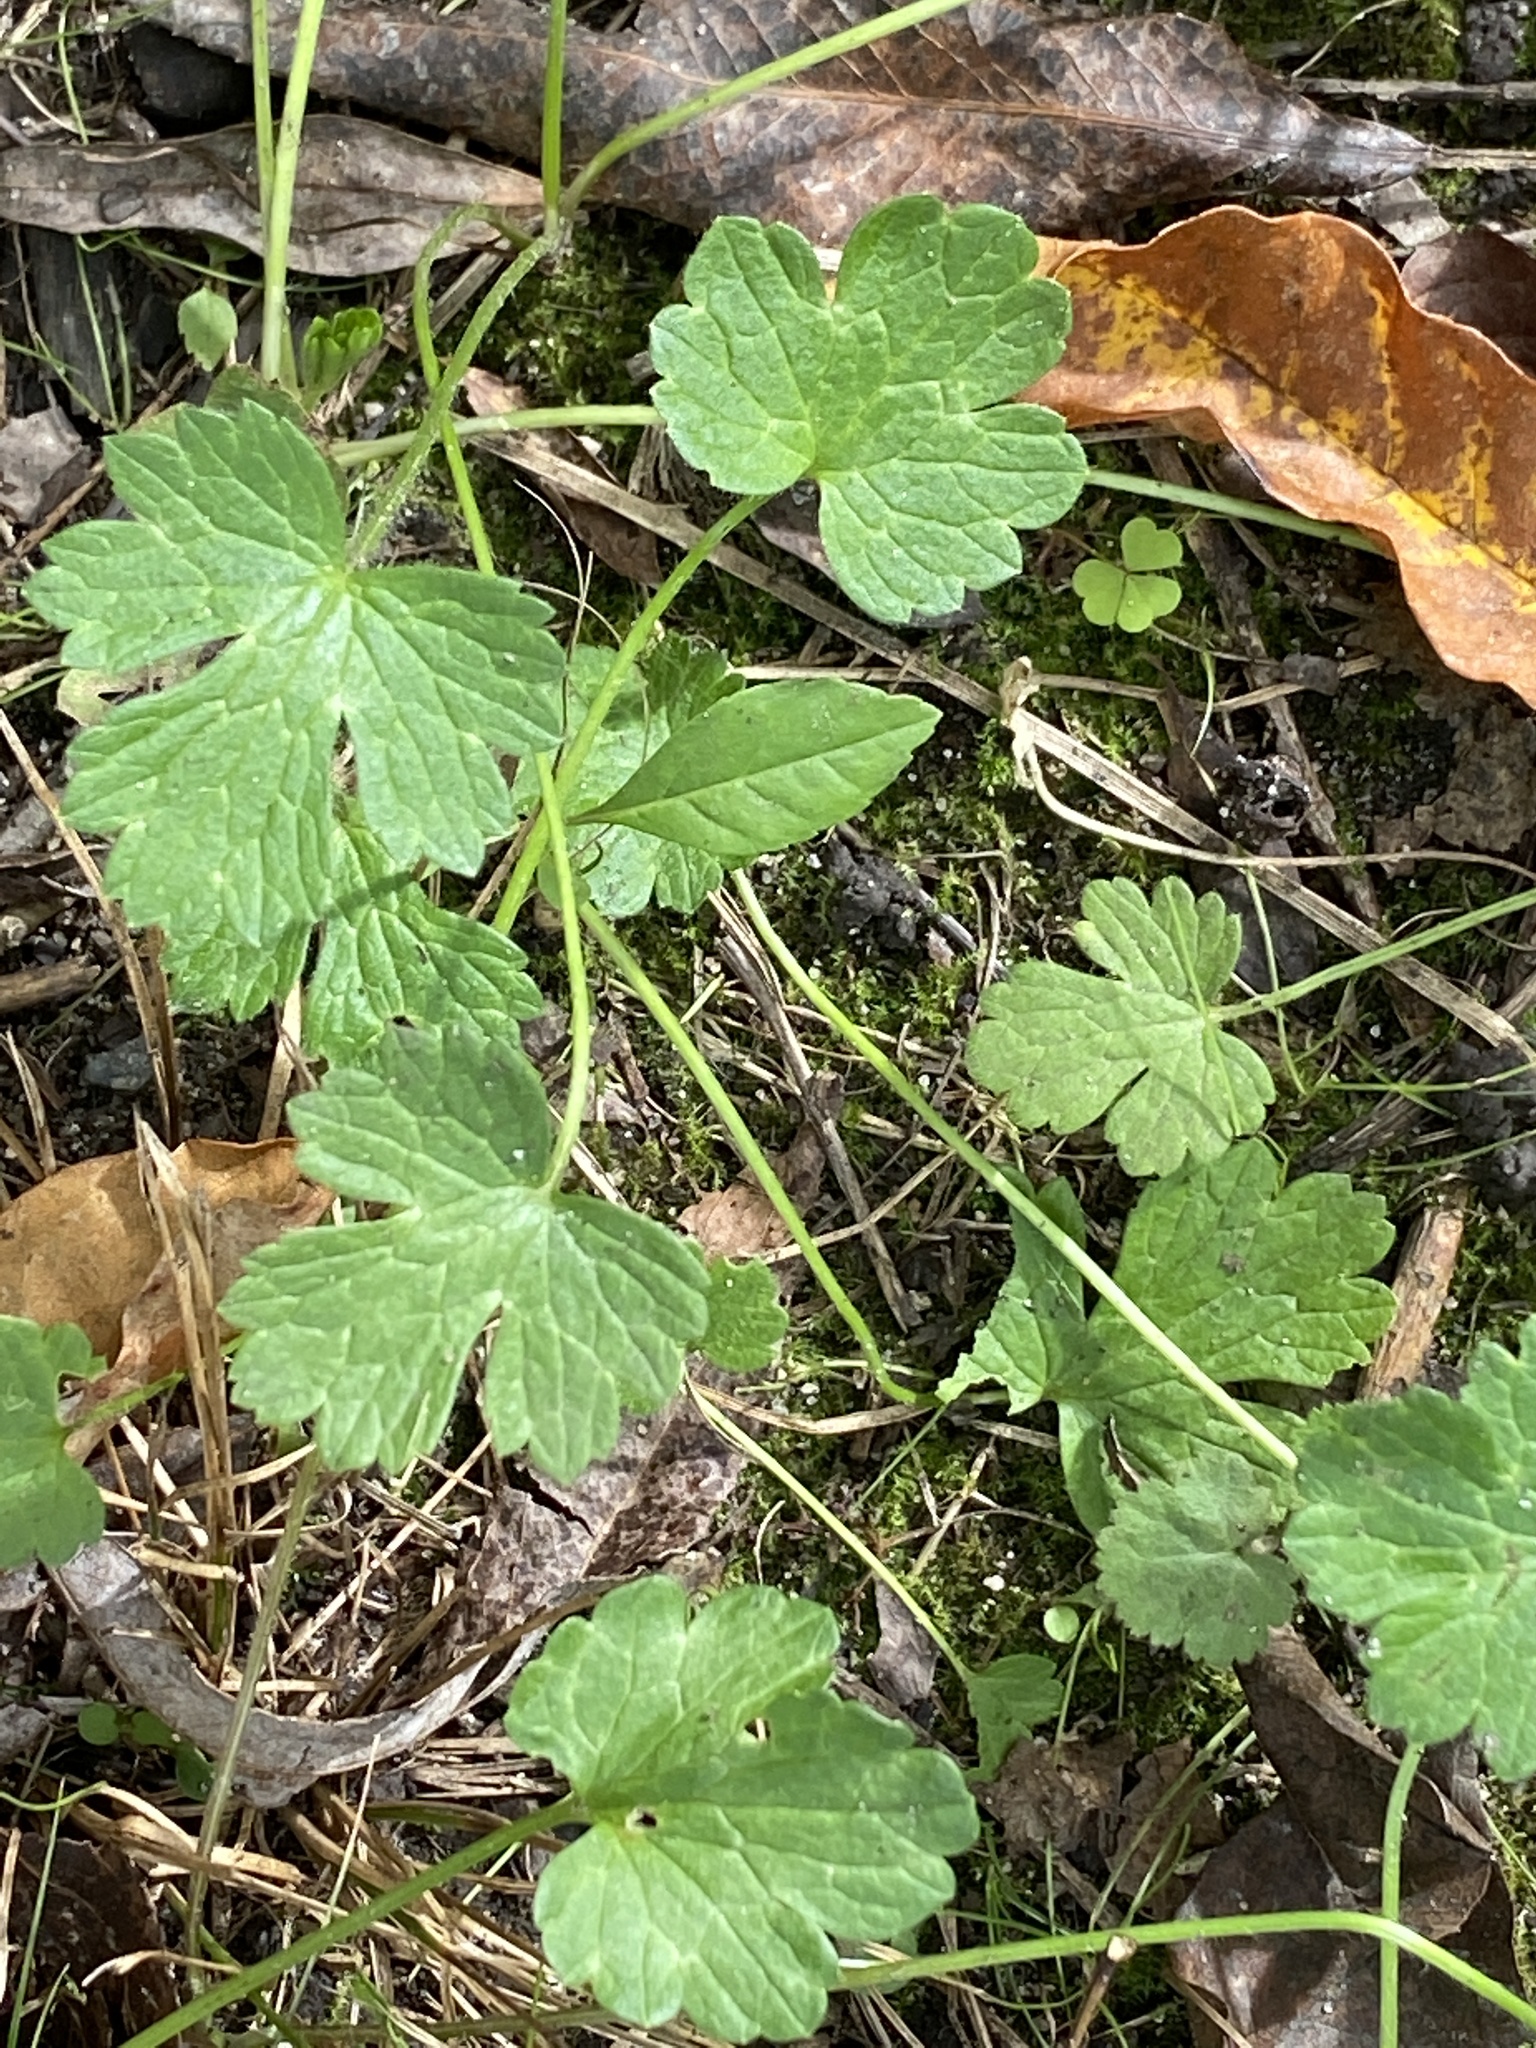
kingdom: Plantae
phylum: Tracheophyta
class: Magnoliopsida
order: Ranunculales
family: Ranunculaceae
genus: Ranunculus
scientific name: Ranunculus bulbosus
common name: Bulbous buttercup
